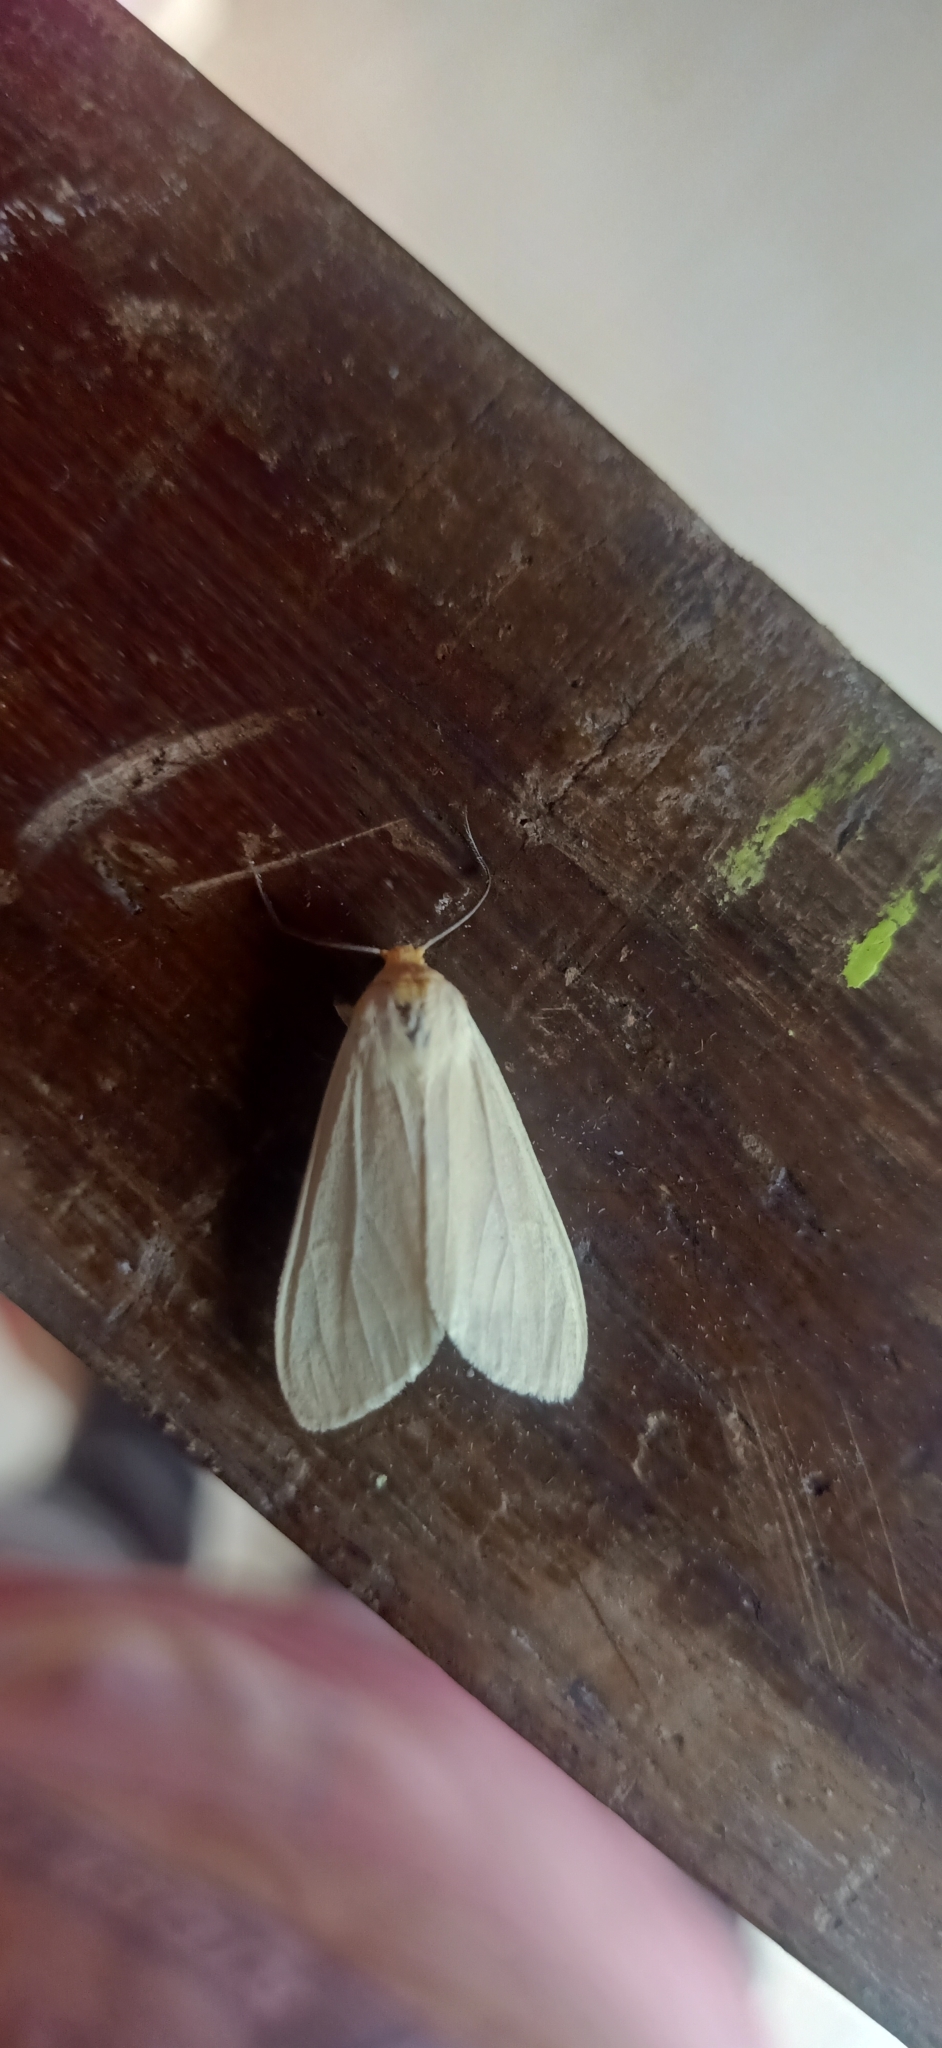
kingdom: Animalia
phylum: Arthropoda
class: Insecta
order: Lepidoptera
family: Erebidae
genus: Pareuchaetes
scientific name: Pareuchaetes pseudoinsulata
